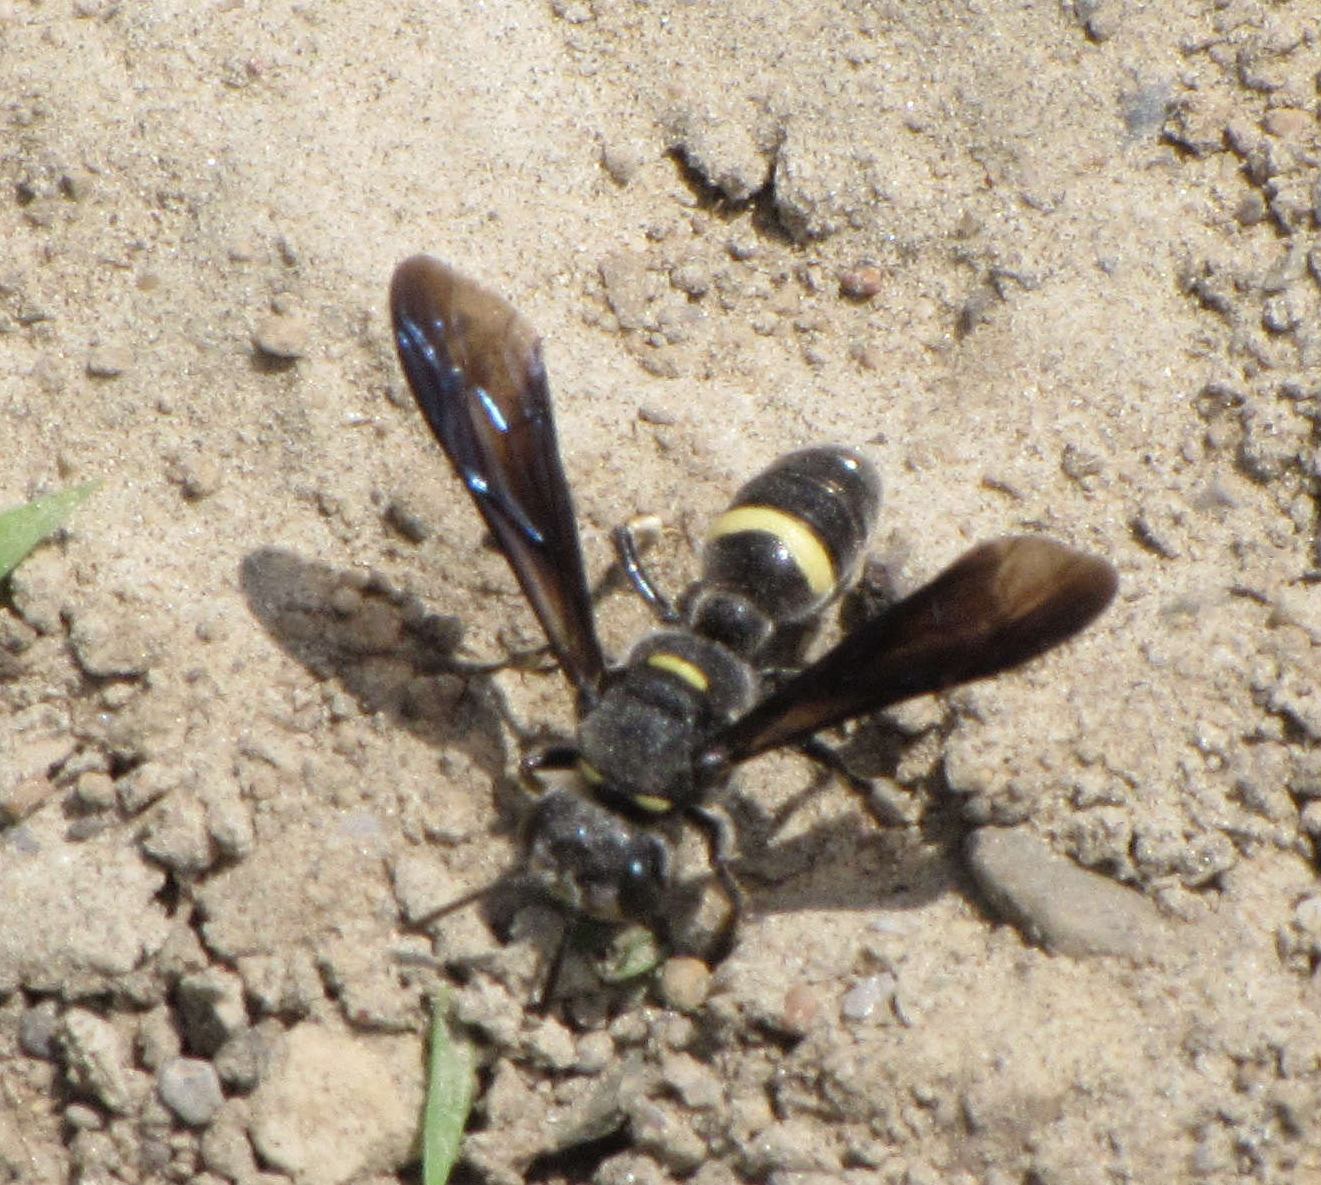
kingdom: Animalia
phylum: Arthropoda
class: Insecta
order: Hymenoptera
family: Crabronidae
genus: Cerceris
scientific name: Cerceris fumipennis
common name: Smokey-winged beetle bandit wasp
